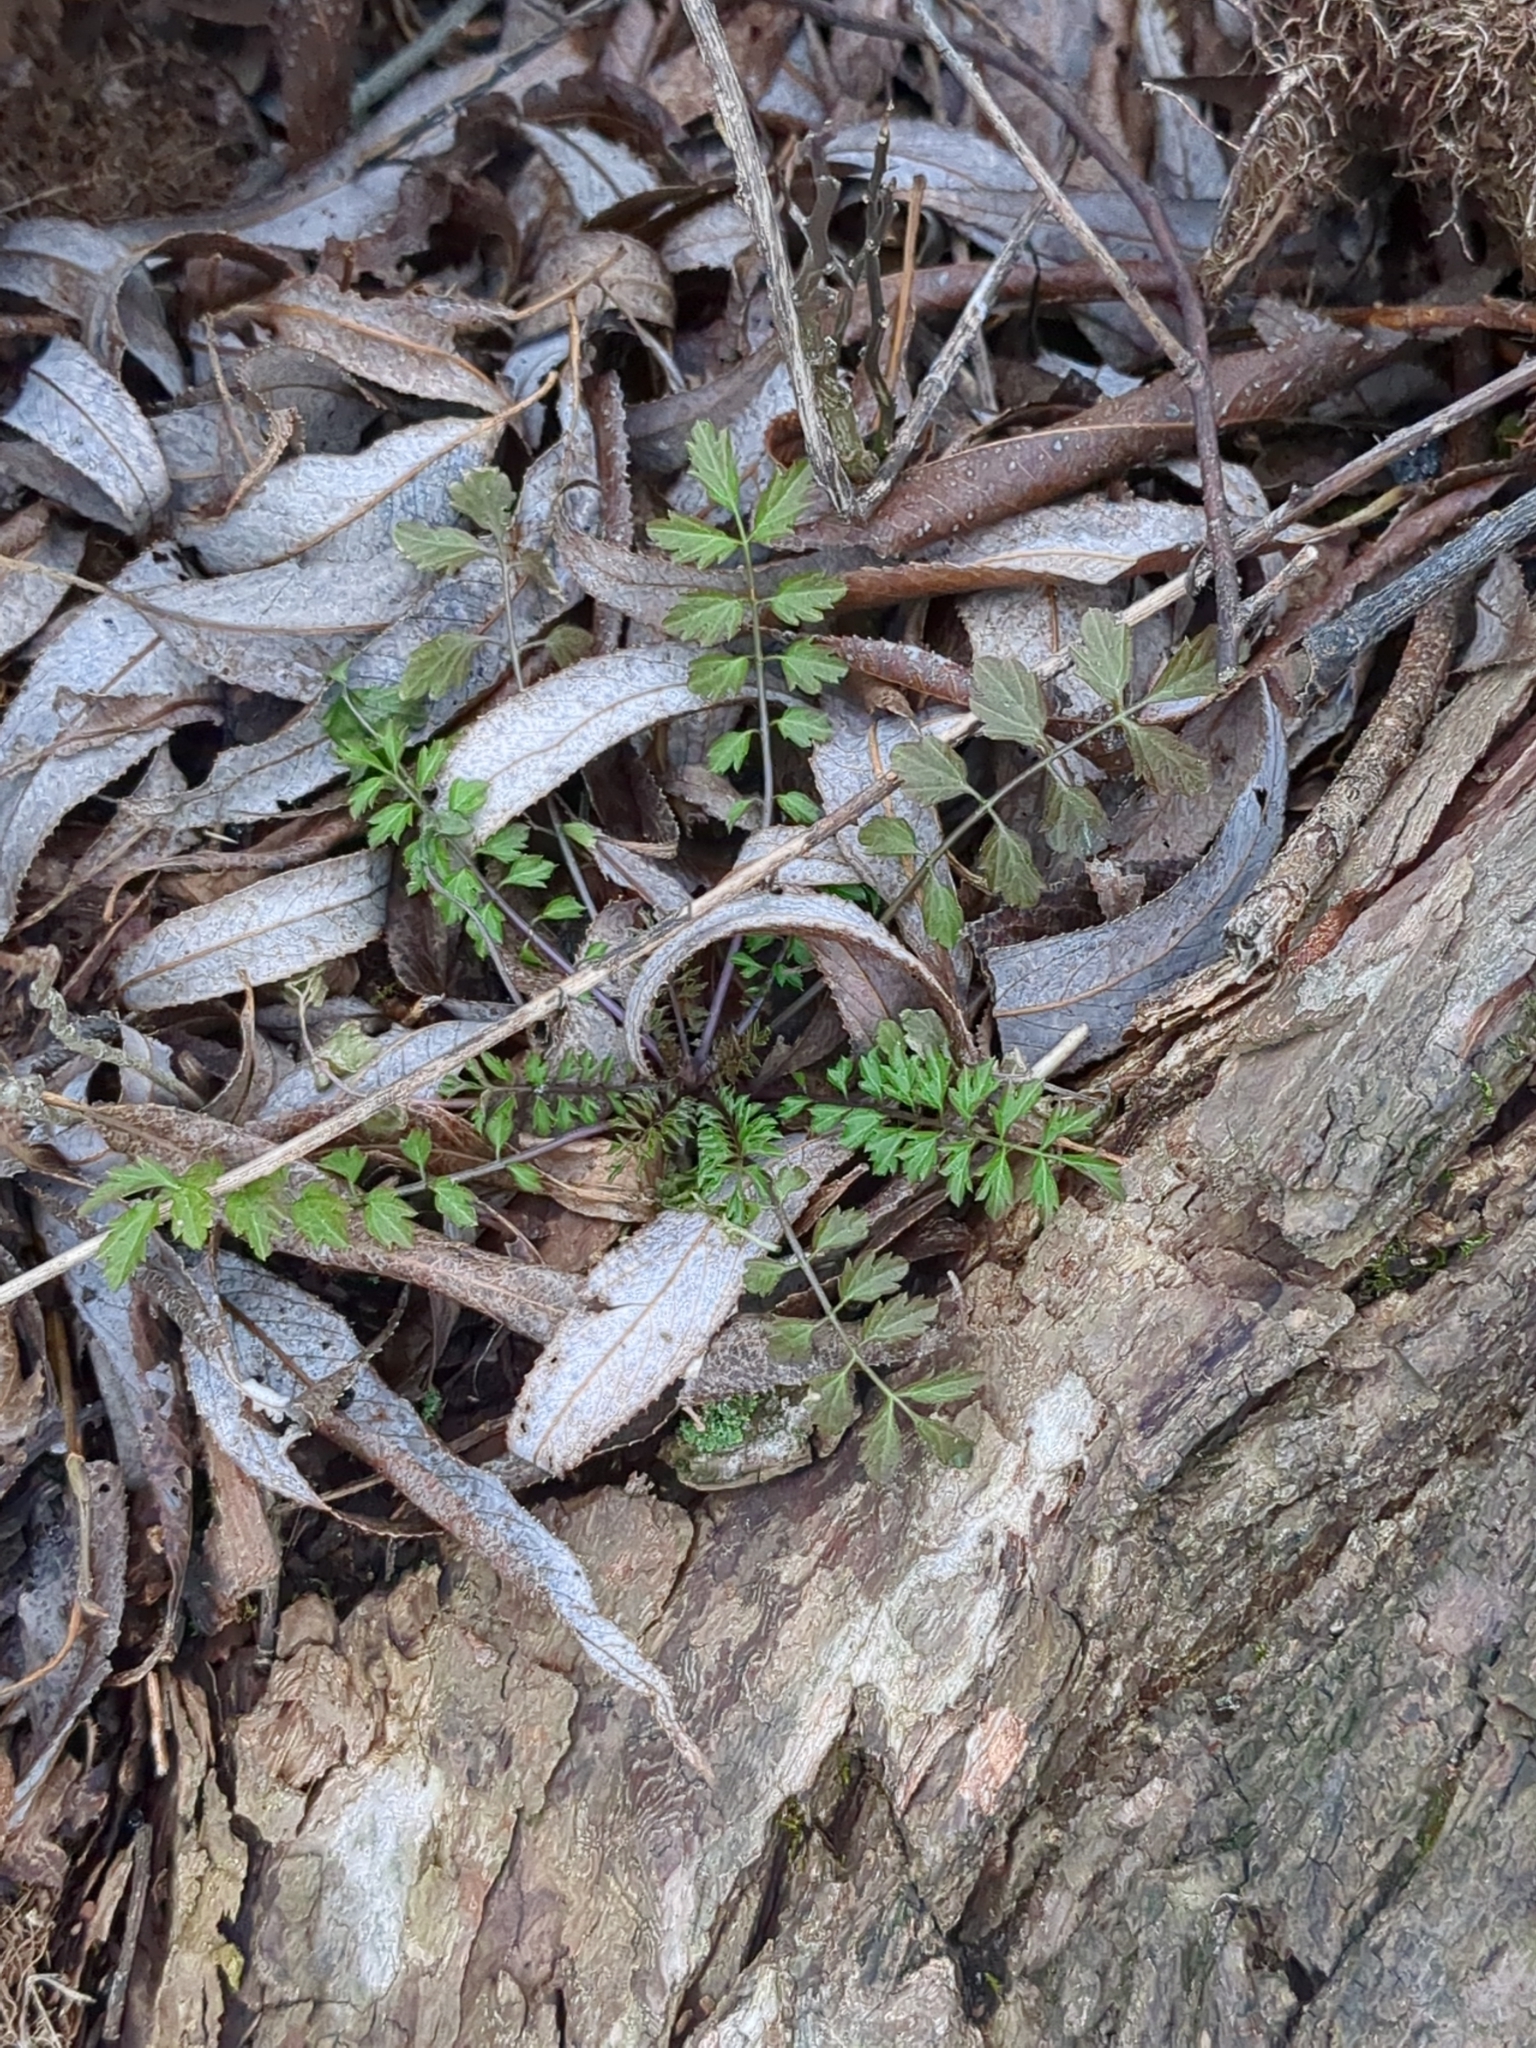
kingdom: Plantae
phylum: Tracheophyta
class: Magnoliopsida
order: Brassicales
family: Brassicaceae
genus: Cardamine
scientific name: Cardamine impatiens
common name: Narrow-leaved bitter-cress
